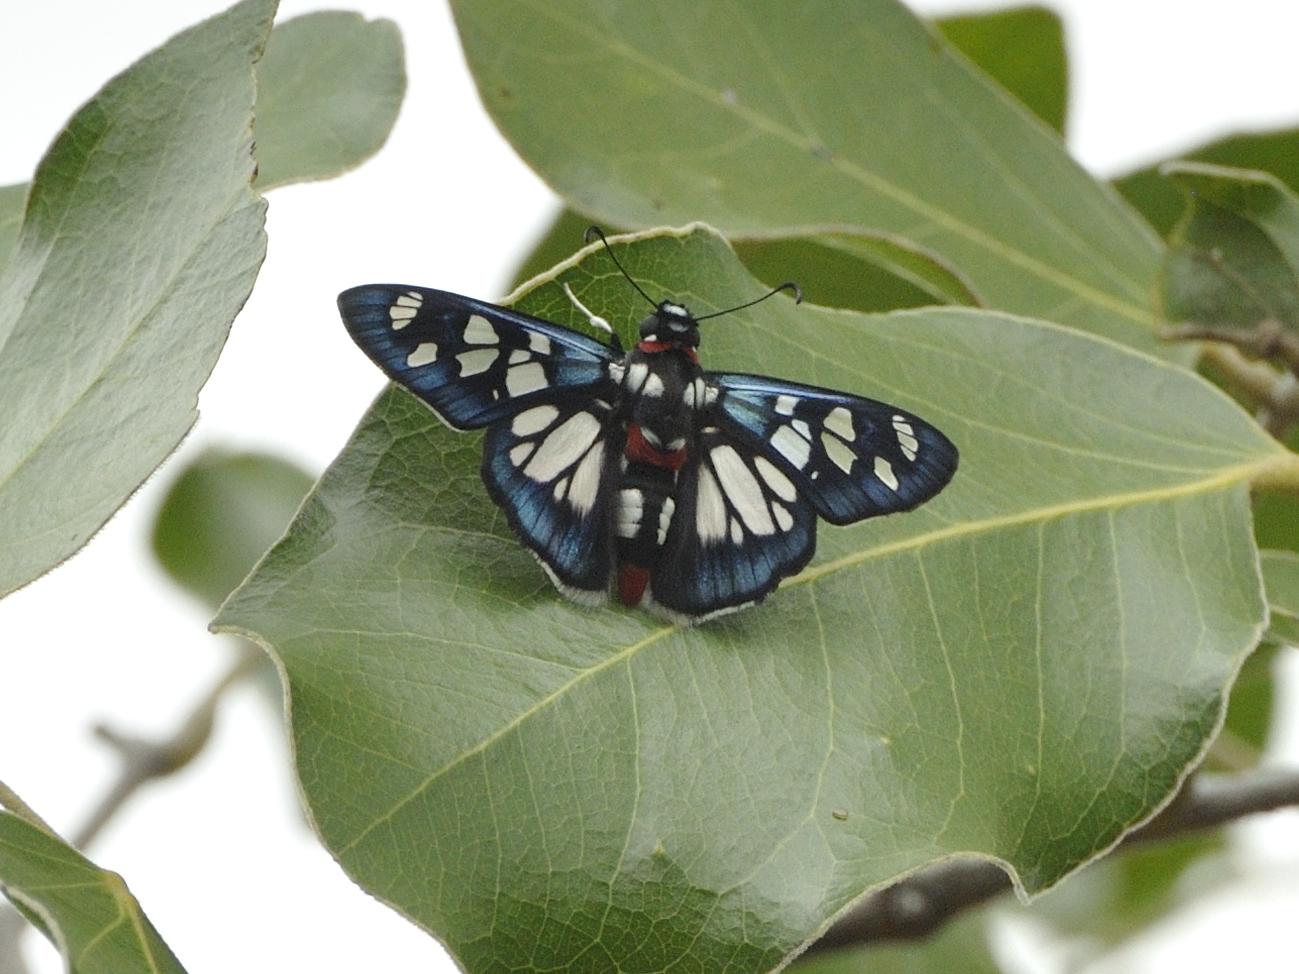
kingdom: Animalia
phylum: Arthropoda
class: Insecta
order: Lepidoptera
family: Hesperiidae
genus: Abantis
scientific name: Abantis zambesiaca
